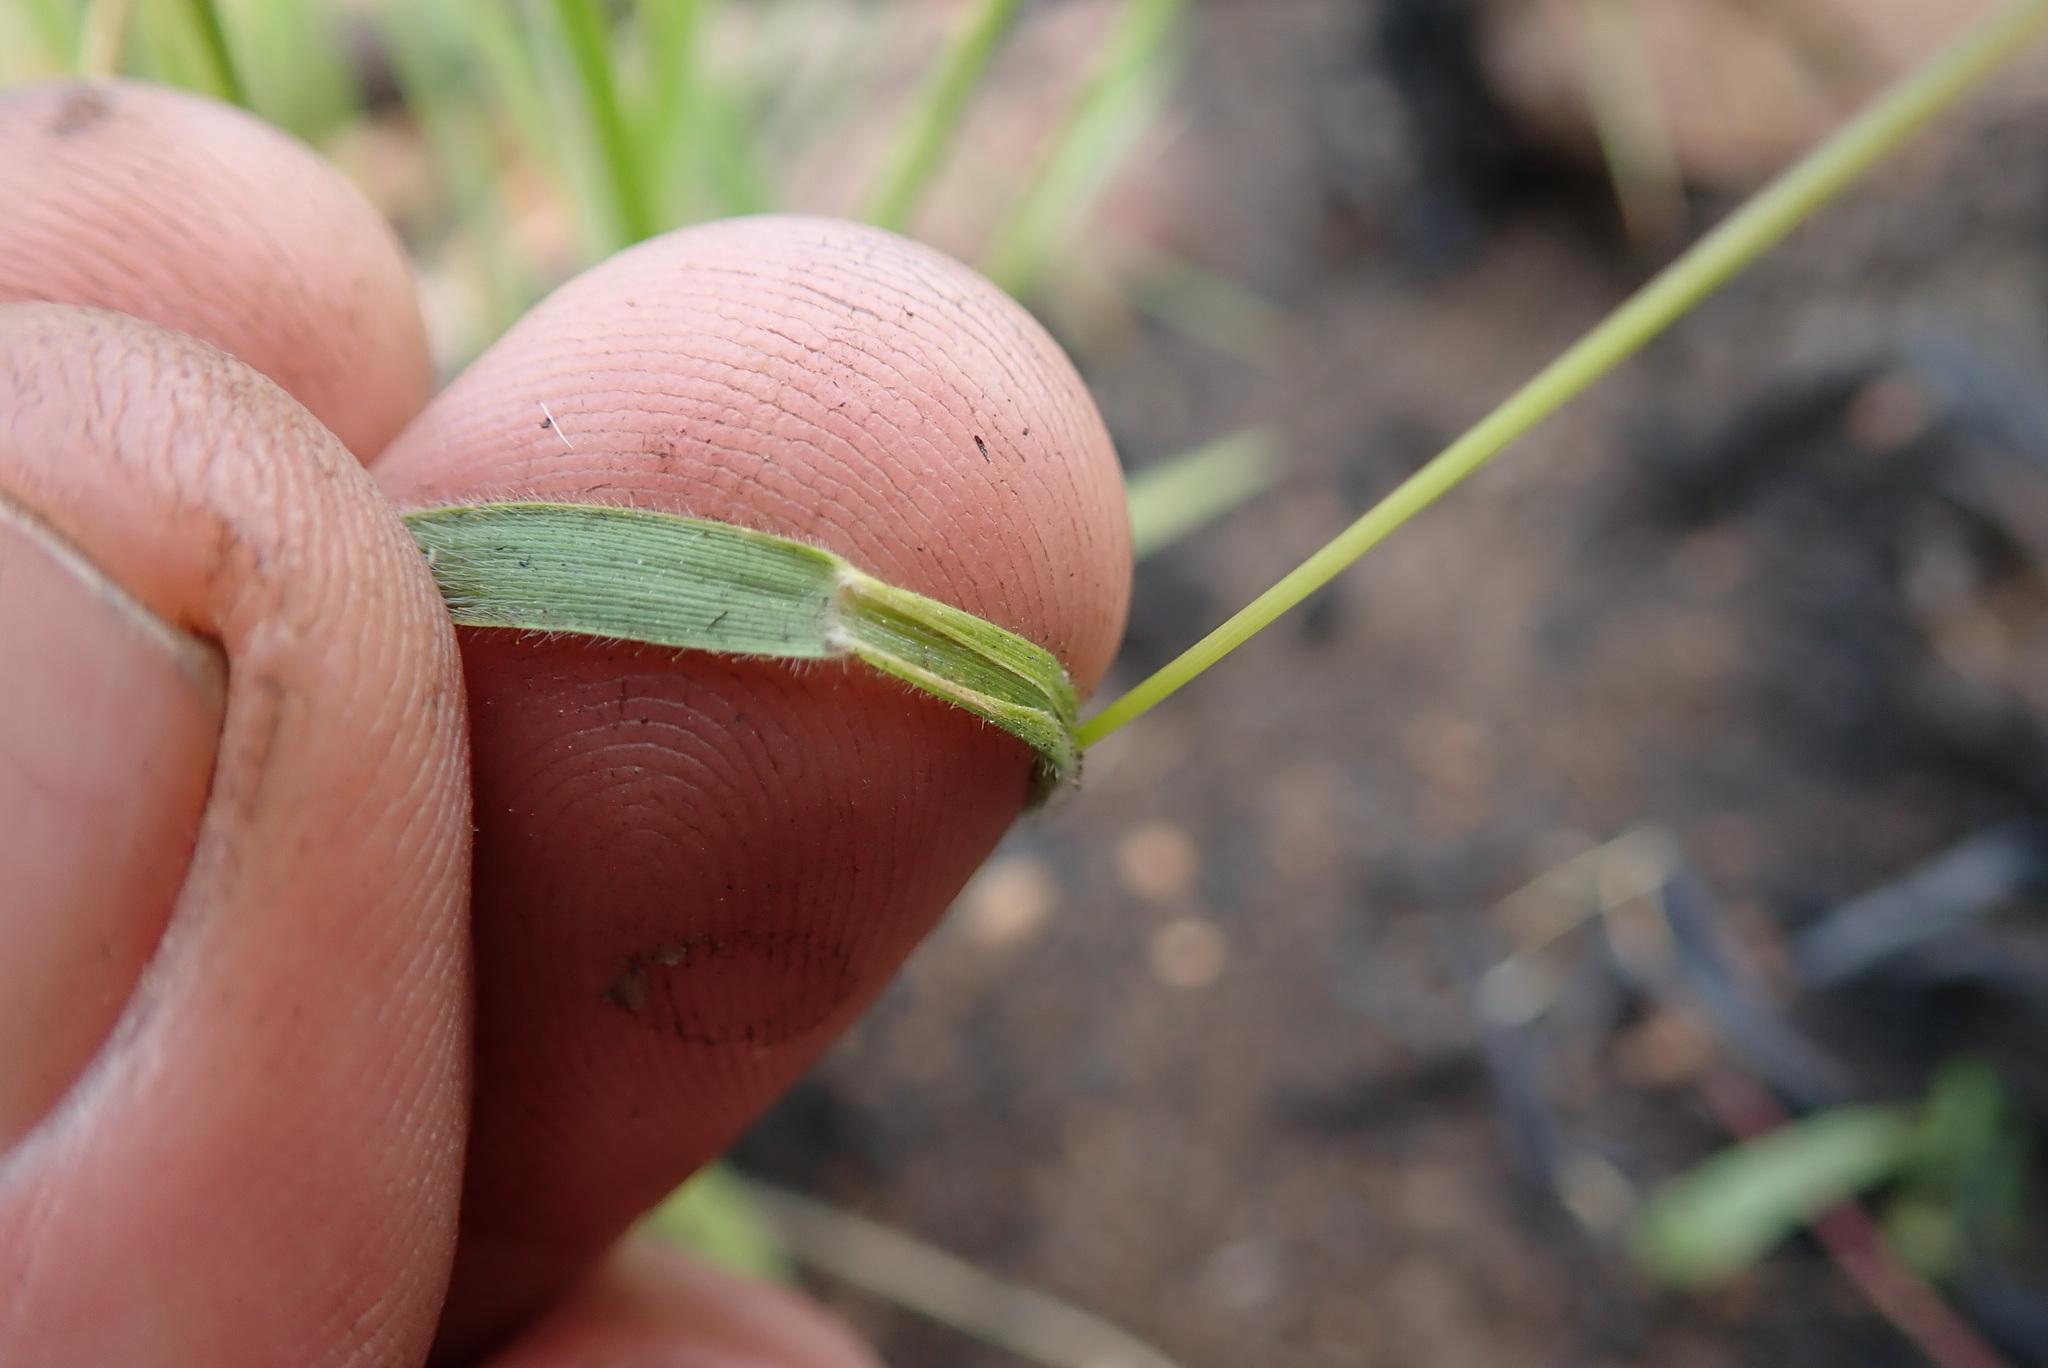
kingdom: Plantae
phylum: Tracheophyta
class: Liliopsida
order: Poales
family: Poaceae
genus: Adenochloa
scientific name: Adenochloa ecklonii
